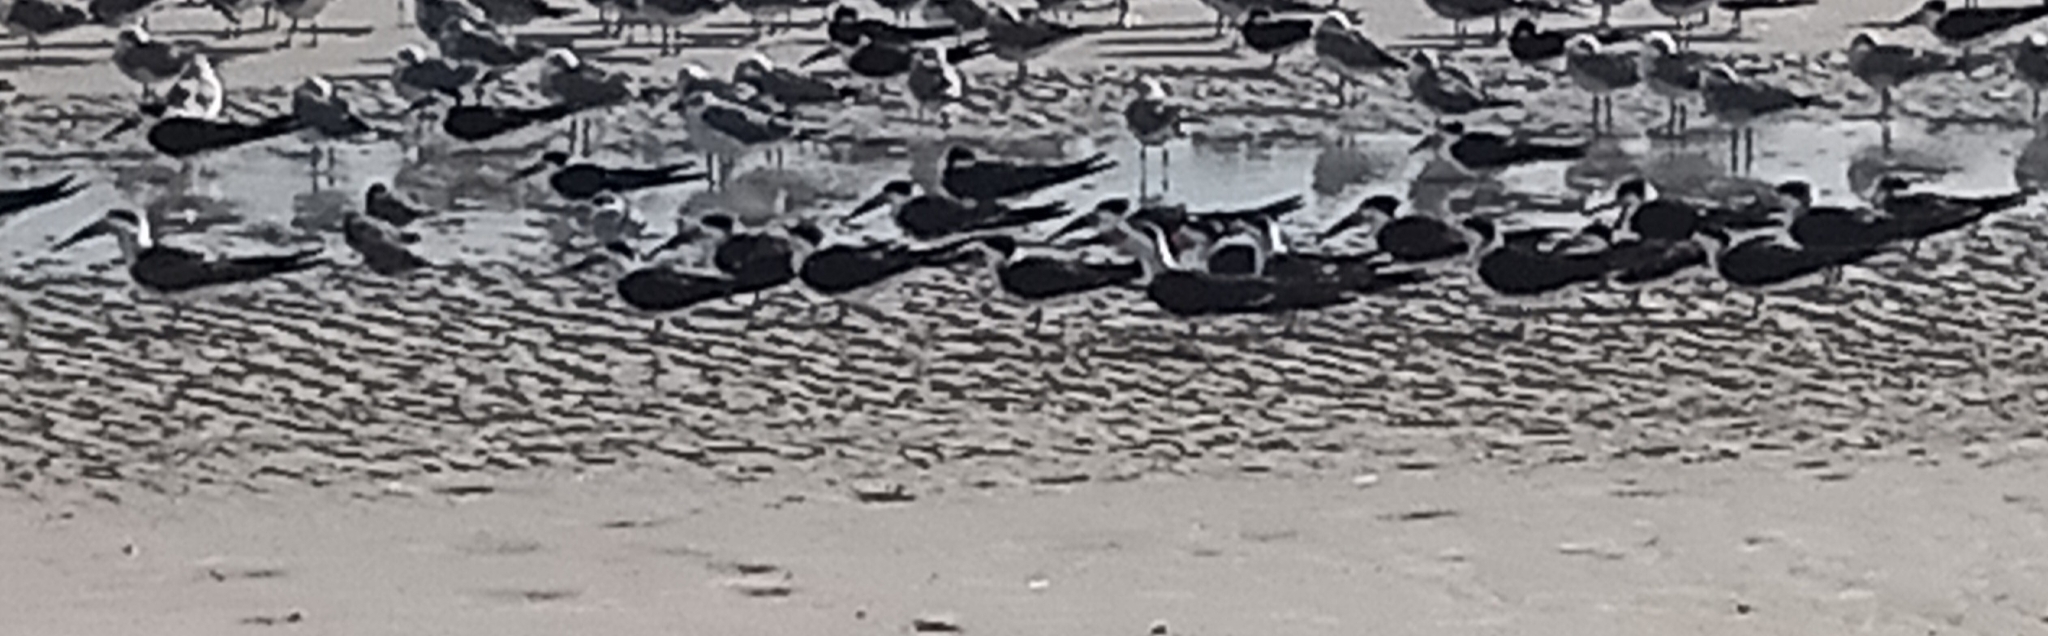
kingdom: Animalia
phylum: Chordata
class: Aves
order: Charadriiformes
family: Laridae
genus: Rynchops
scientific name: Rynchops niger
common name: Black skimmer
